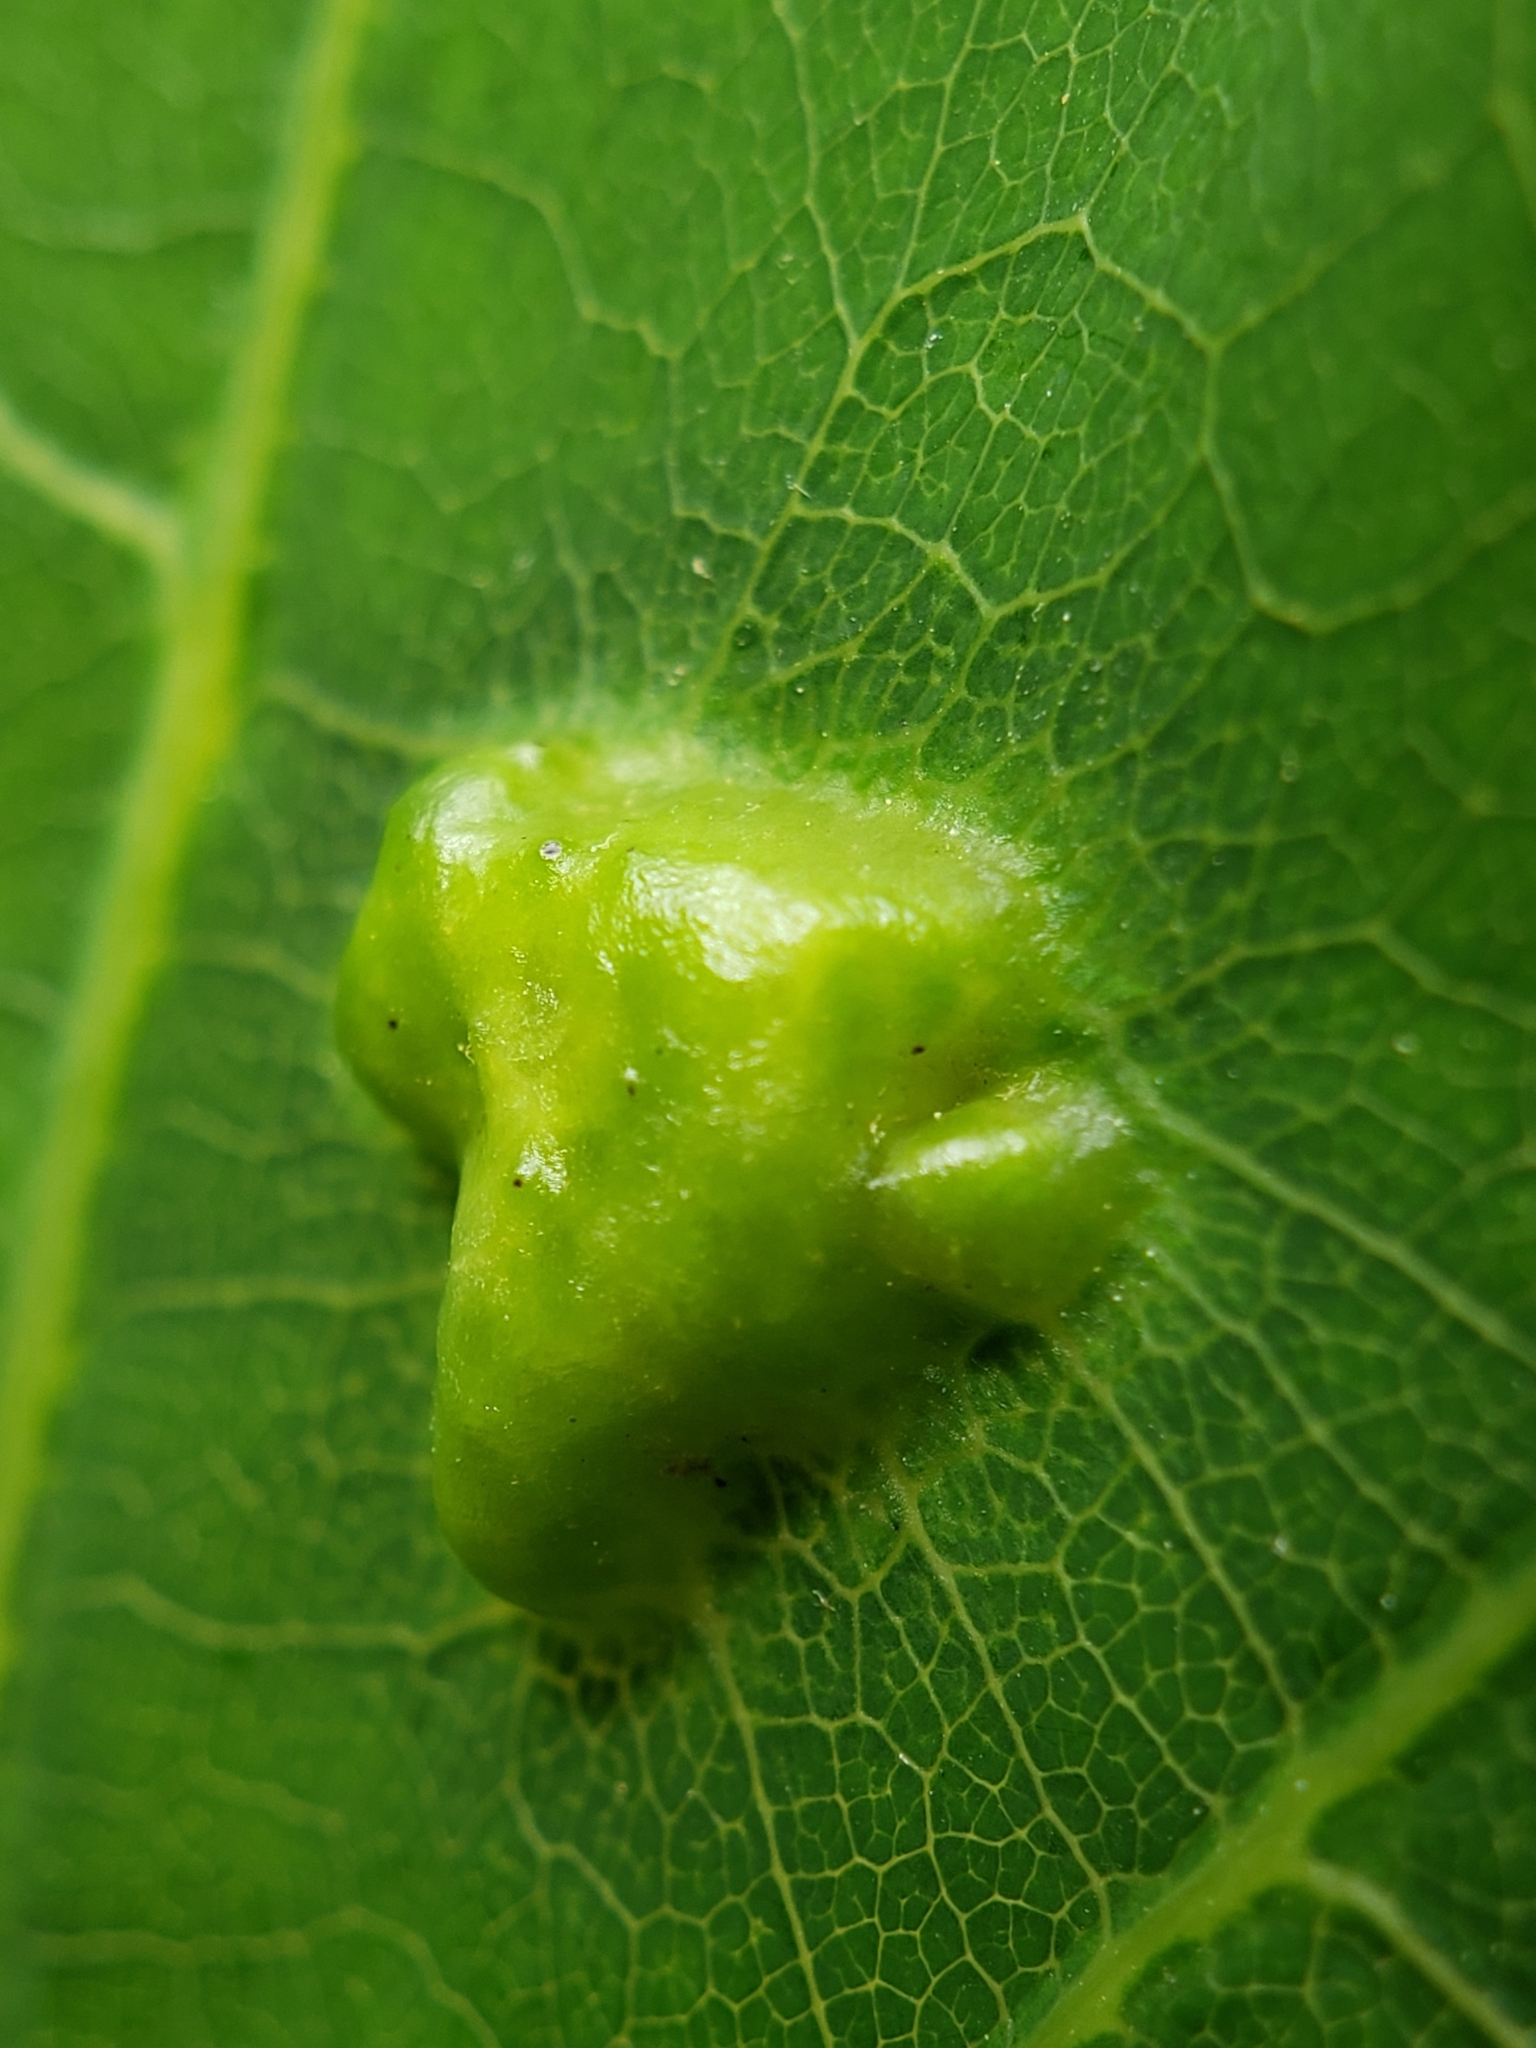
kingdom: Animalia
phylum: Arthropoda
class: Insecta
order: Hymenoptera
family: Cynipidae
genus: Callirhytis
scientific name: Callirhytis
